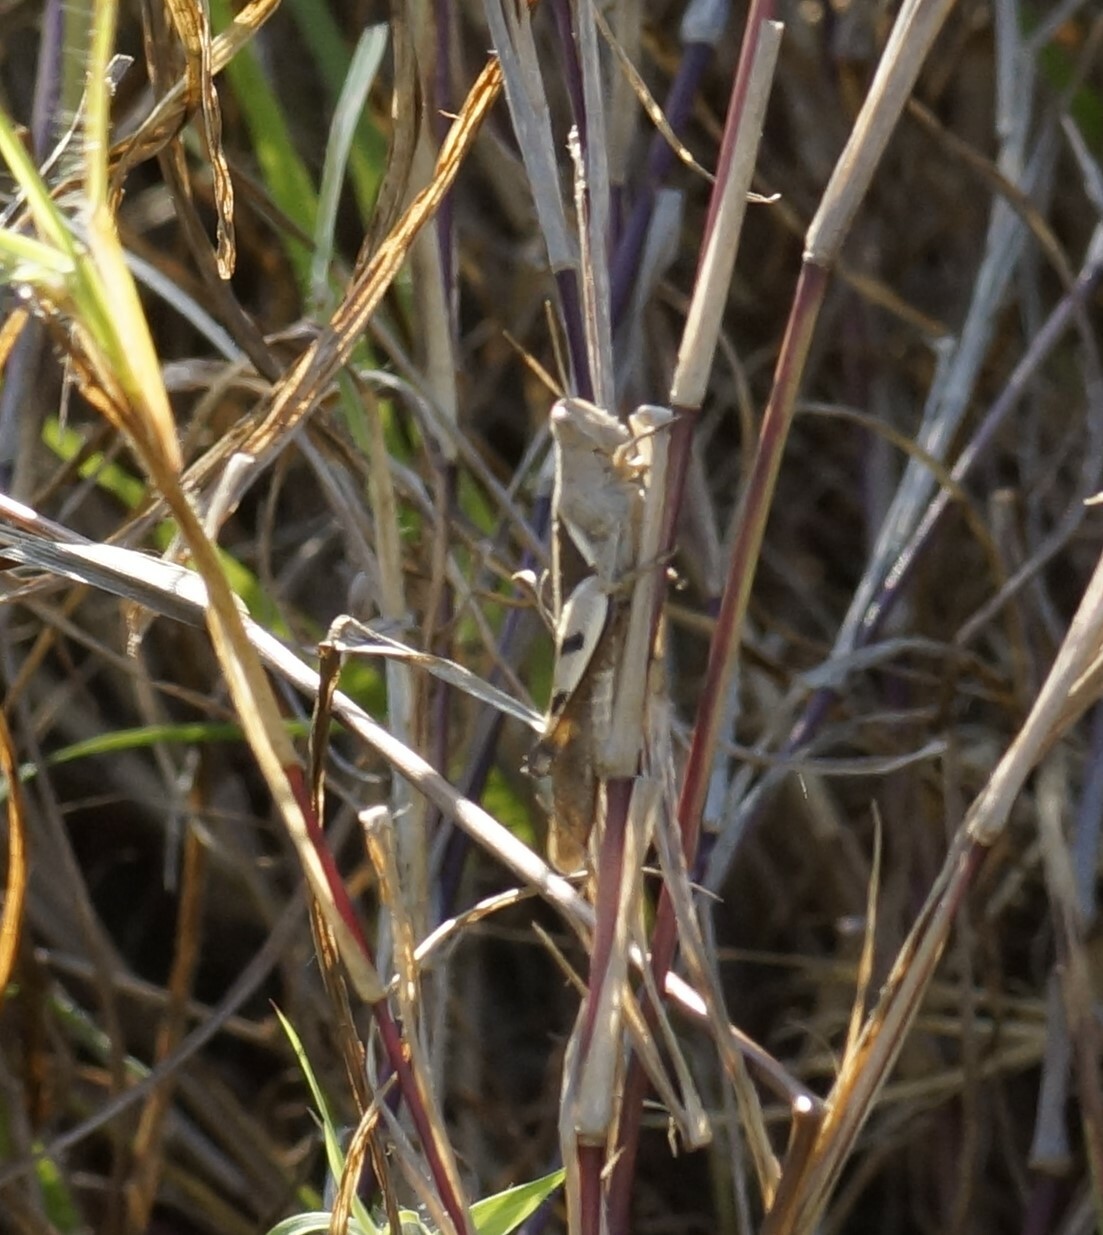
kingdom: Animalia
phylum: Arthropoda
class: Insecta
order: Orthoptera
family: Acrididae
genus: Stenocatantops
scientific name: Stenocatantops angustifrons
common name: Common tropical sharptail
